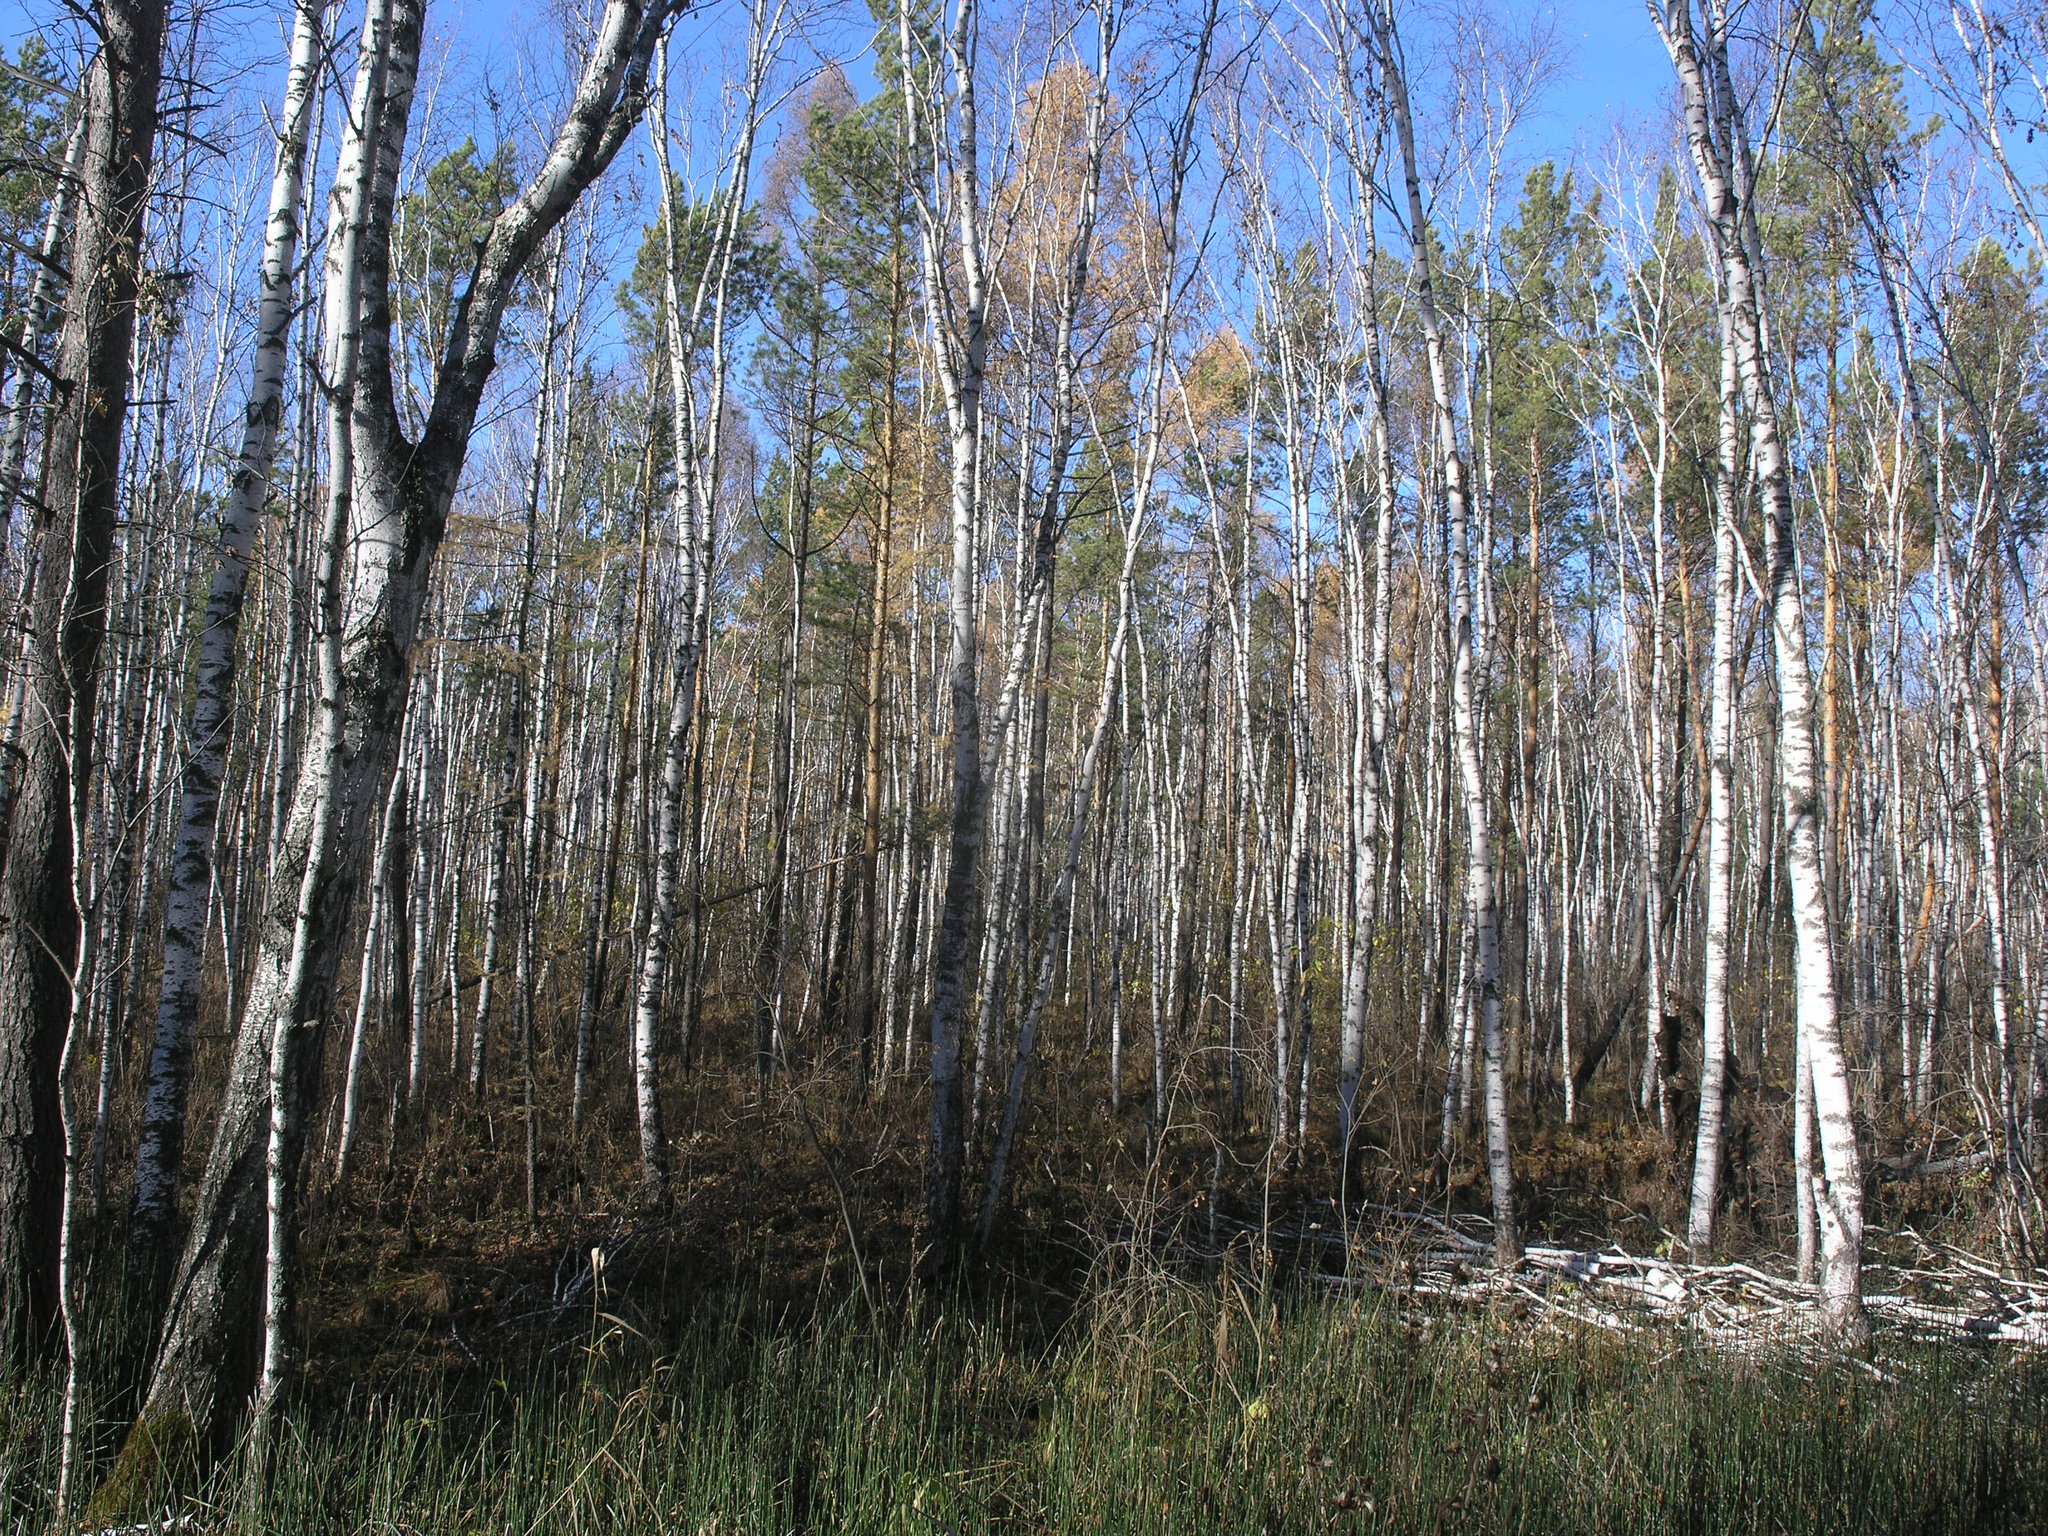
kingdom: Plantae
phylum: Tracheophyta
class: Pinopsida
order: Pinales
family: Pinaceae
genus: Larix
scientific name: Larix sibirica
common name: Siberian larch
